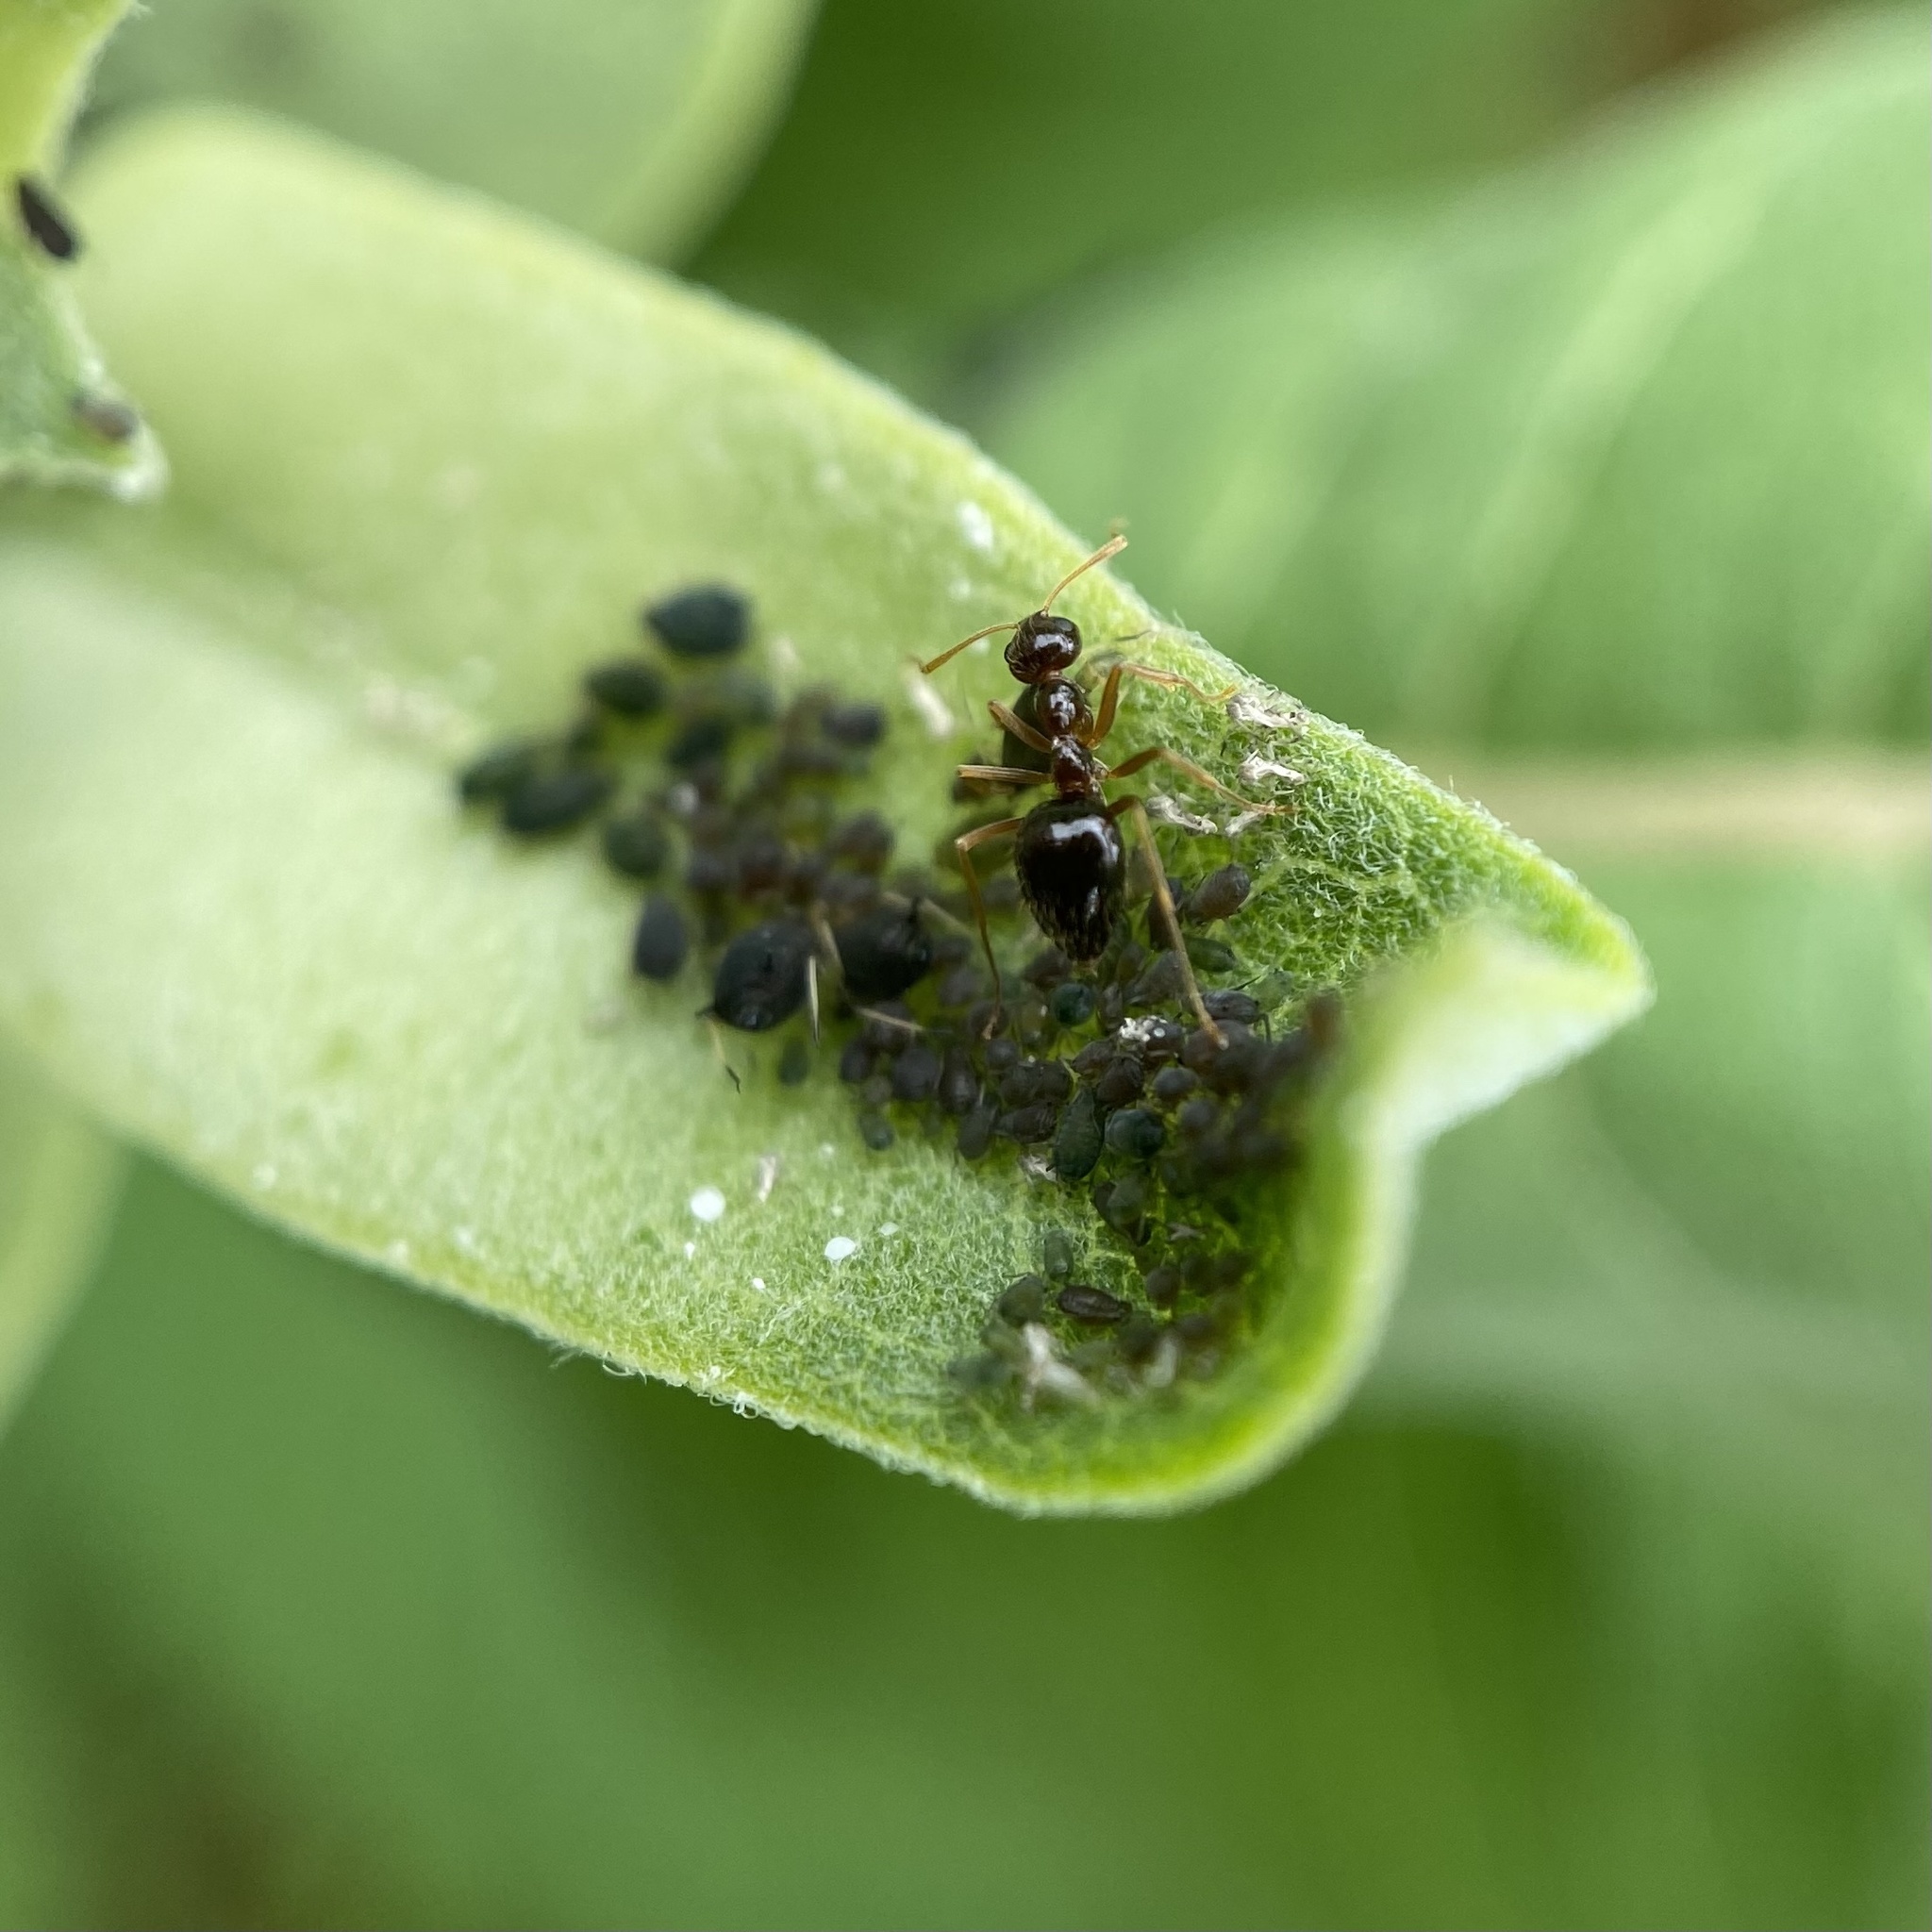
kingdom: Animalia
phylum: Arthropoda
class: Insecta
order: Hymenoptera
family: Formicidae
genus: Prenolepis
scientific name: Prenolepis imparis
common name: Small honey ant
